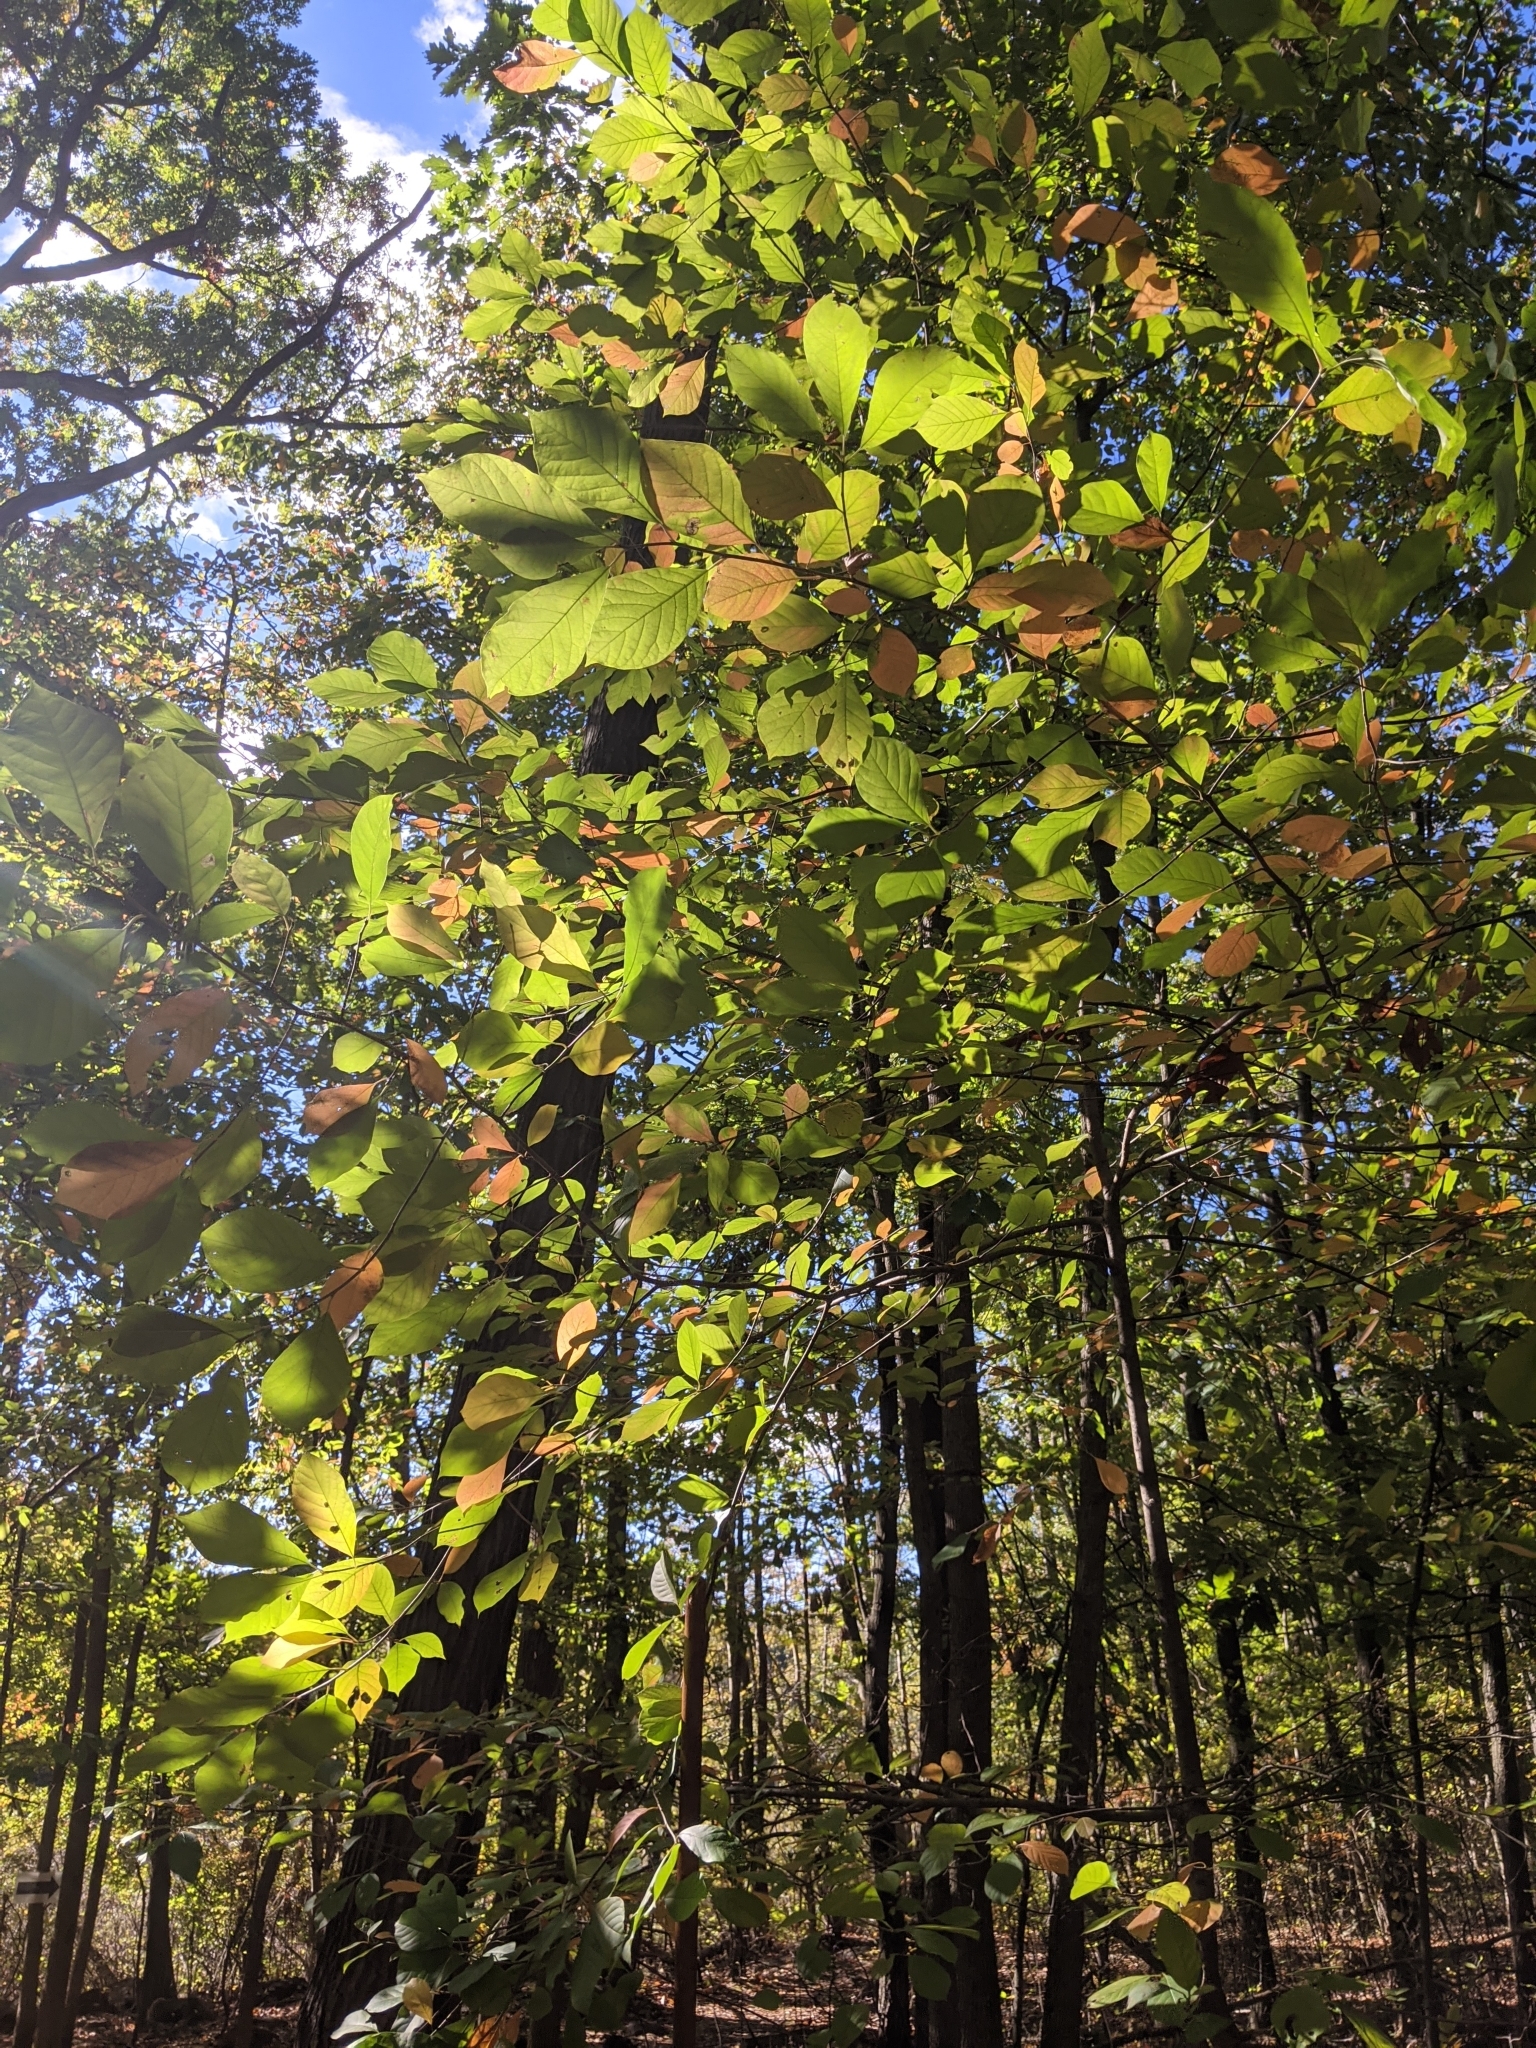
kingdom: Plantae
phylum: Tracheophyta
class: Magnoliopsida
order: Cornales
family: Nyssaceae
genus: Nyssa
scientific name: Nyssa sylvatica
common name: Black tupelo
